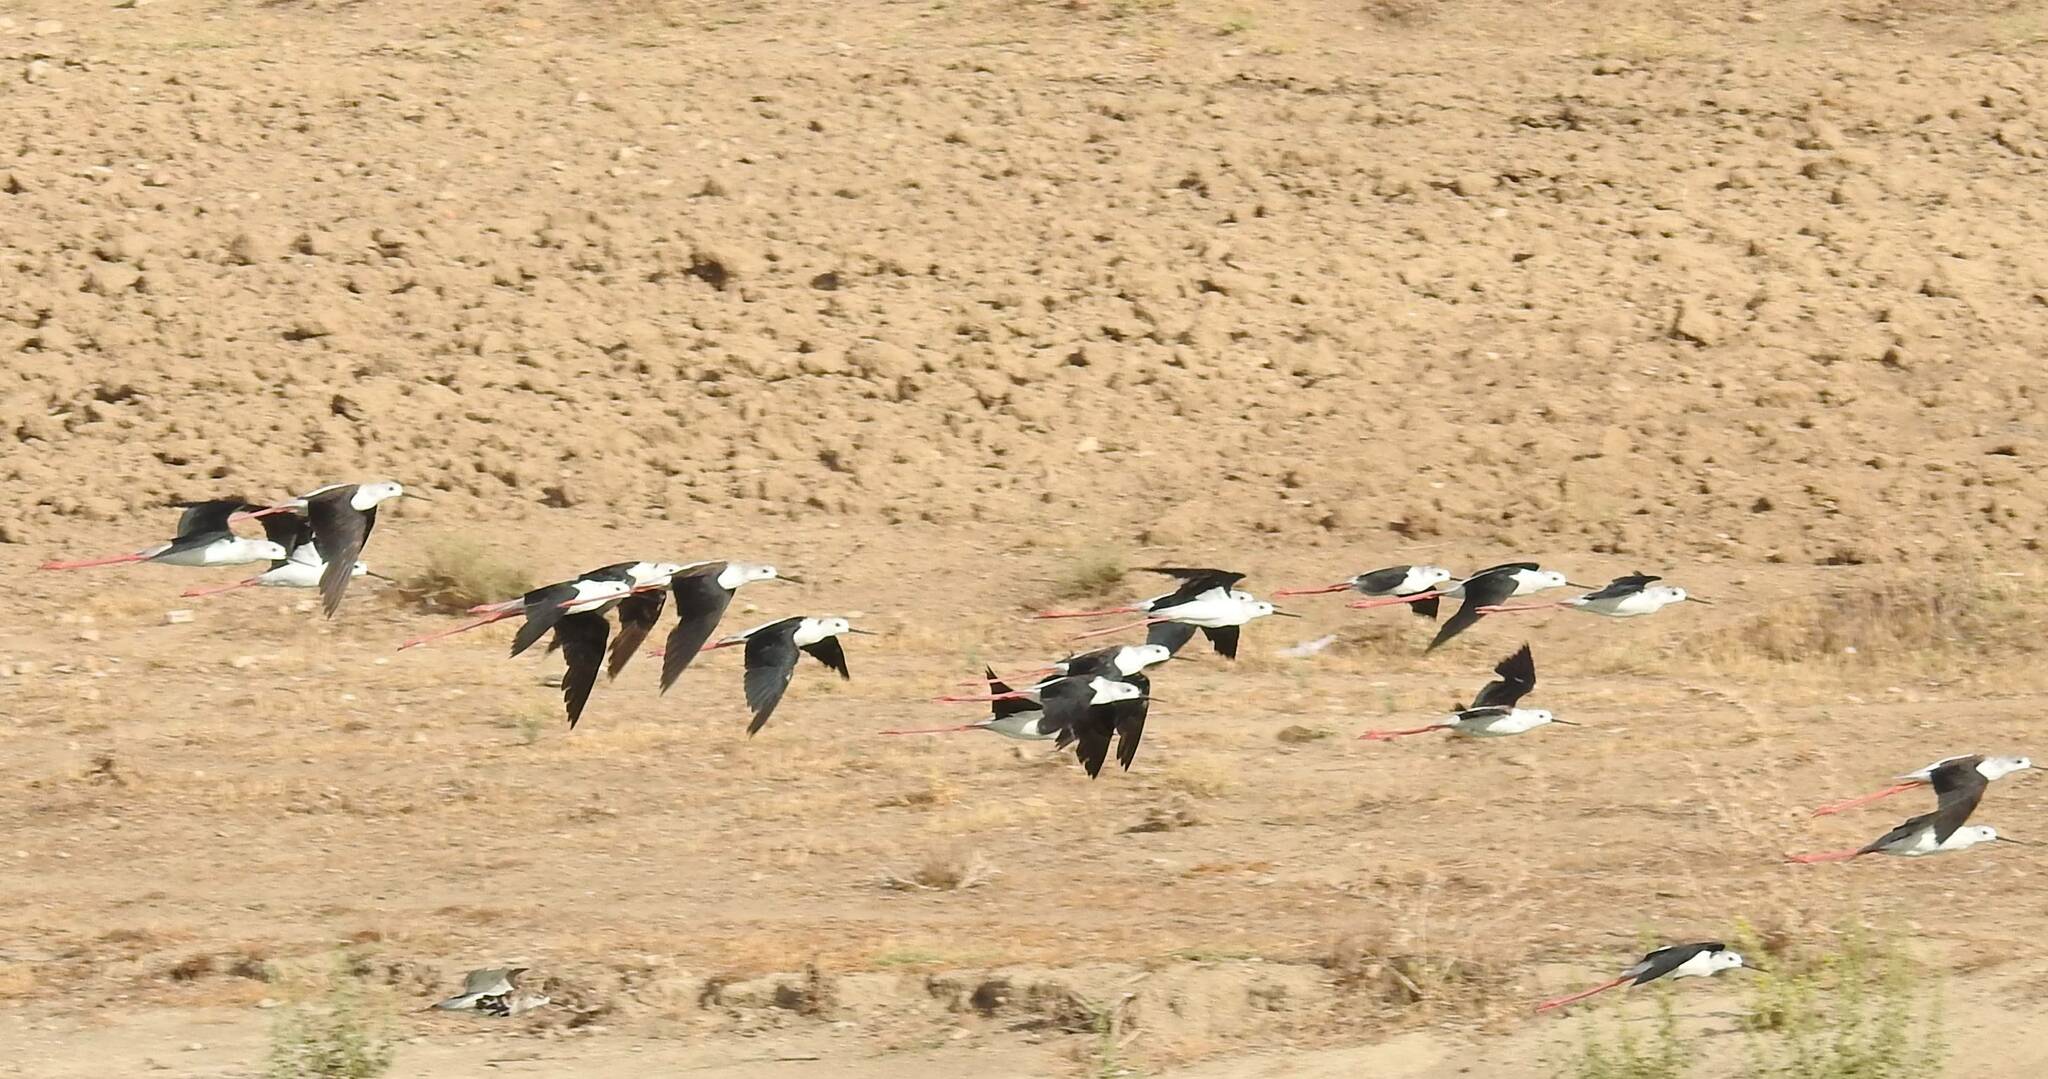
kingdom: Animalia
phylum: Chordata
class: Aves
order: Charadriiformes
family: Recurvirostridae
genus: Himantopus
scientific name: Himantopus himantopus
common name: Black-winged stilt
